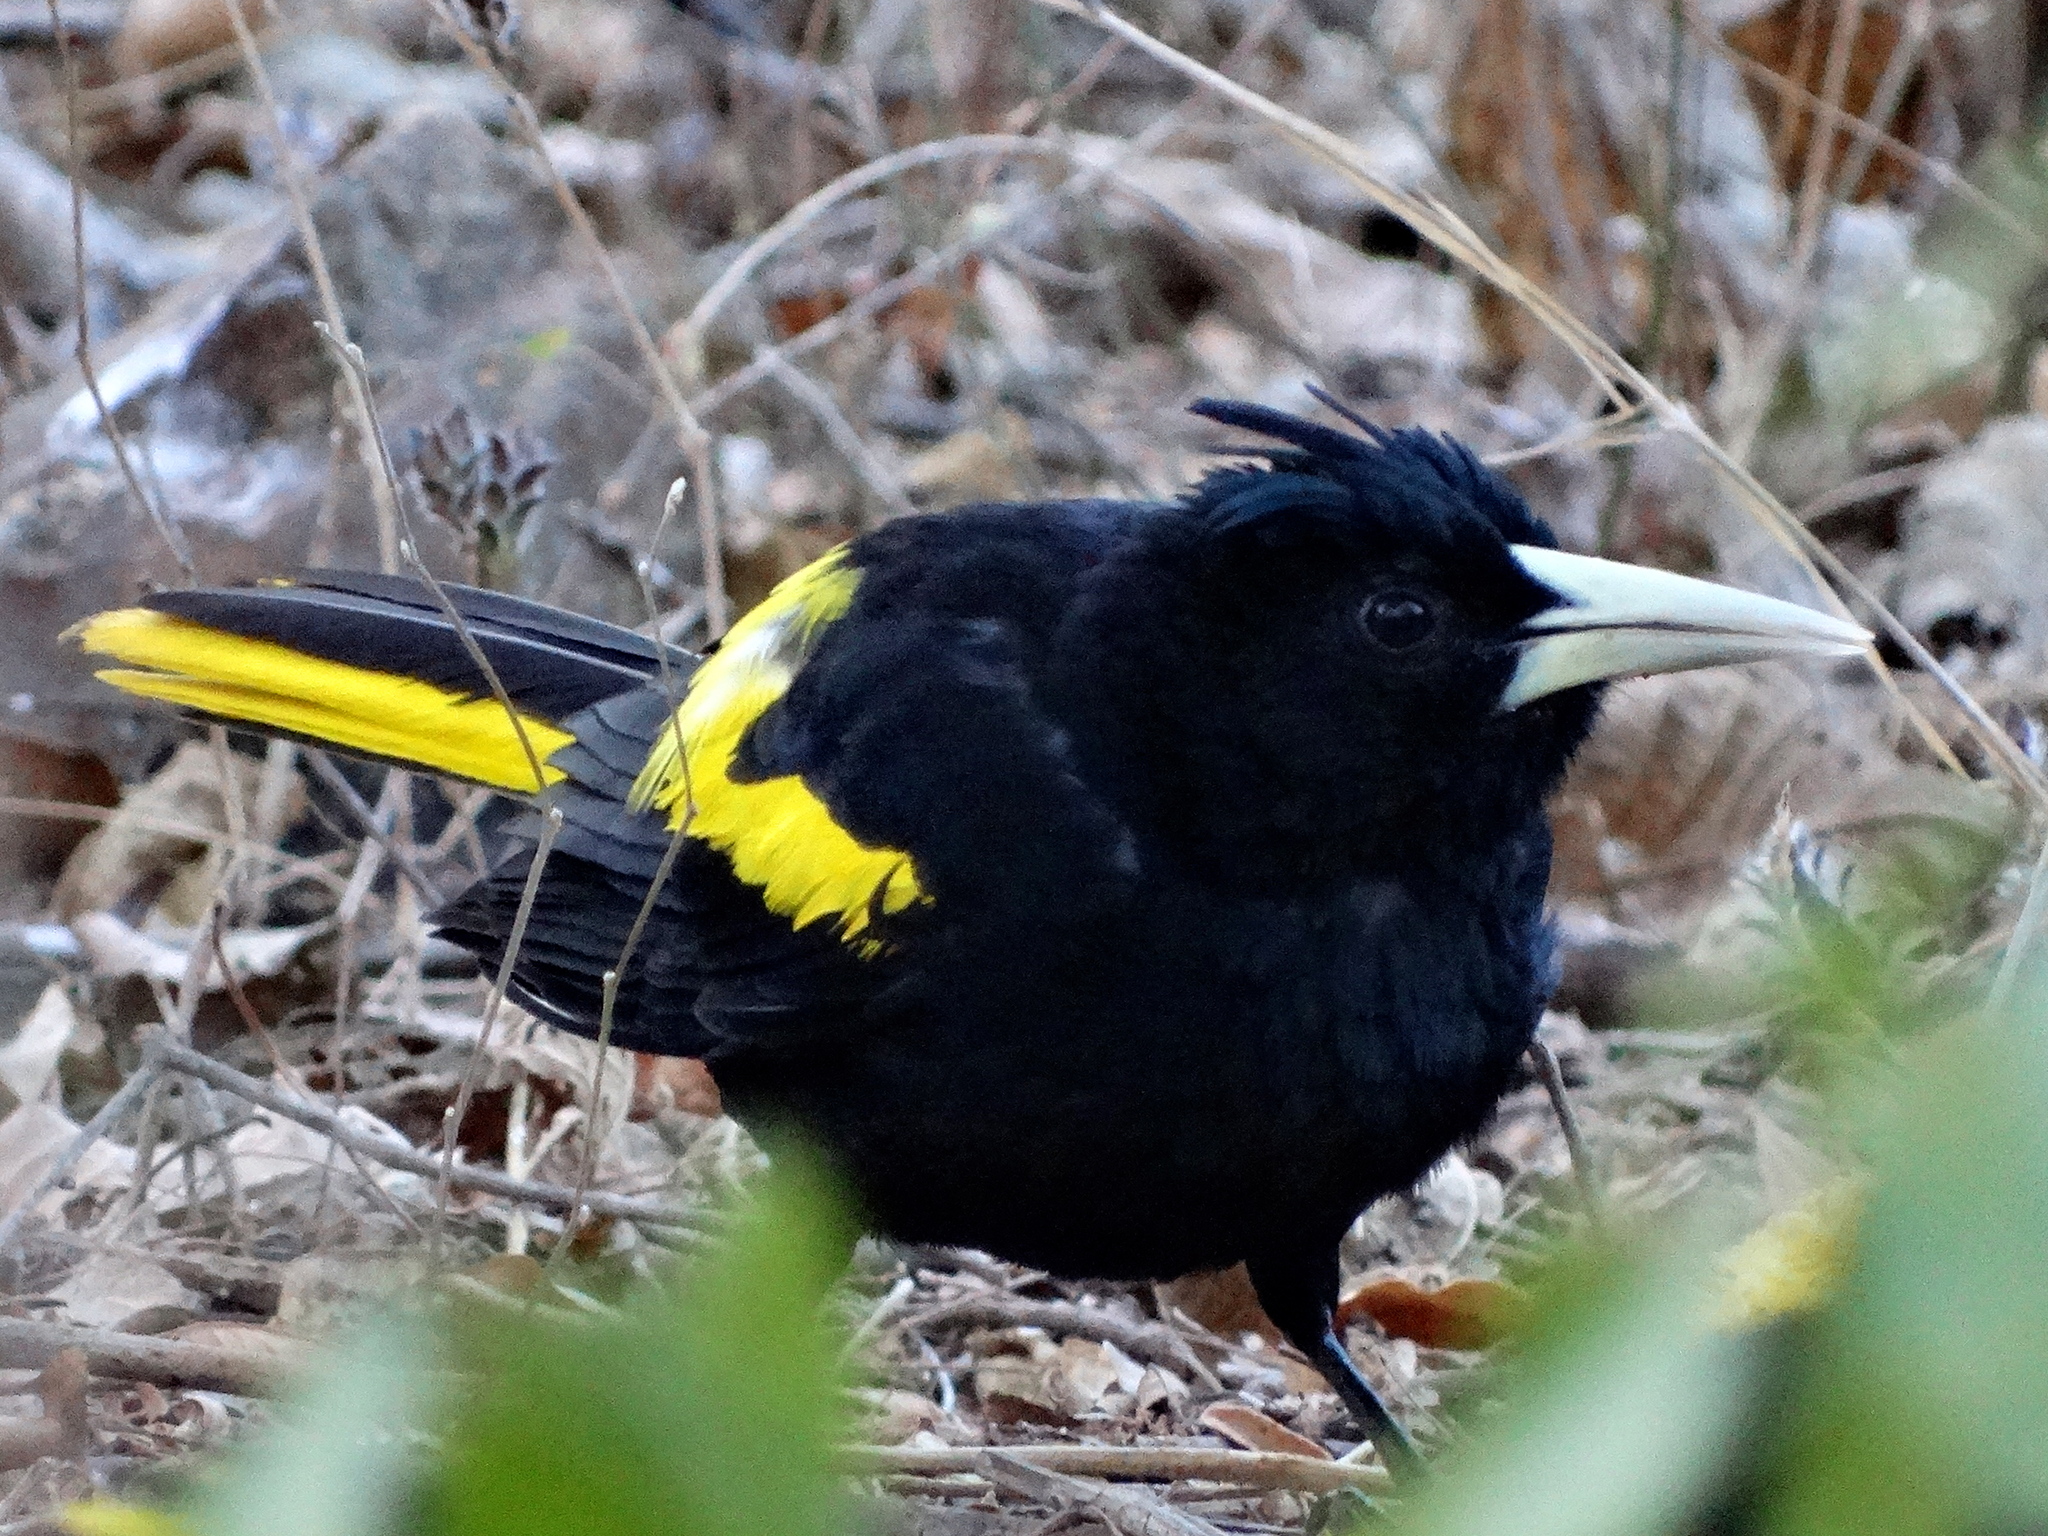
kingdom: Animalia
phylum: Chordata
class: Aves
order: Passeriformes
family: Icteridae
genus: Cacicus
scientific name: Cacicus melanicterus
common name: Yellow-winged cacique
